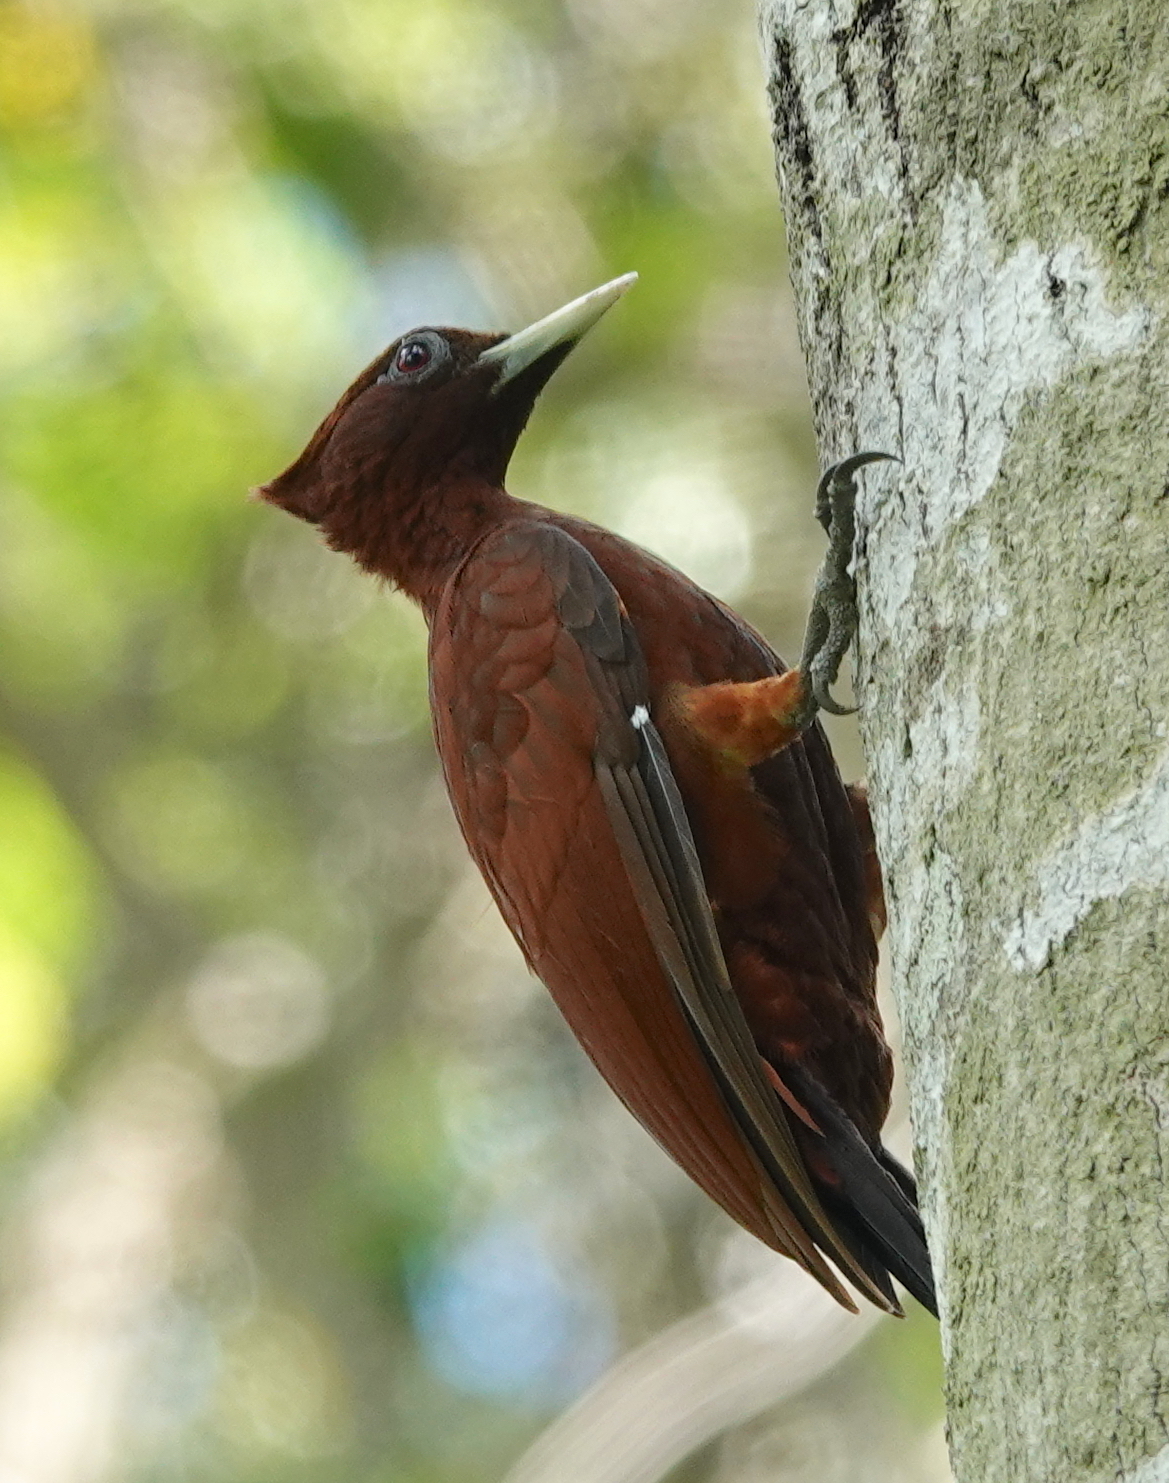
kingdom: Animalia
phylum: Chordata
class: Aves
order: Piciformes
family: Picidae
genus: Celeus
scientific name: Celeus elegans
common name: Chestnut woodpecker
